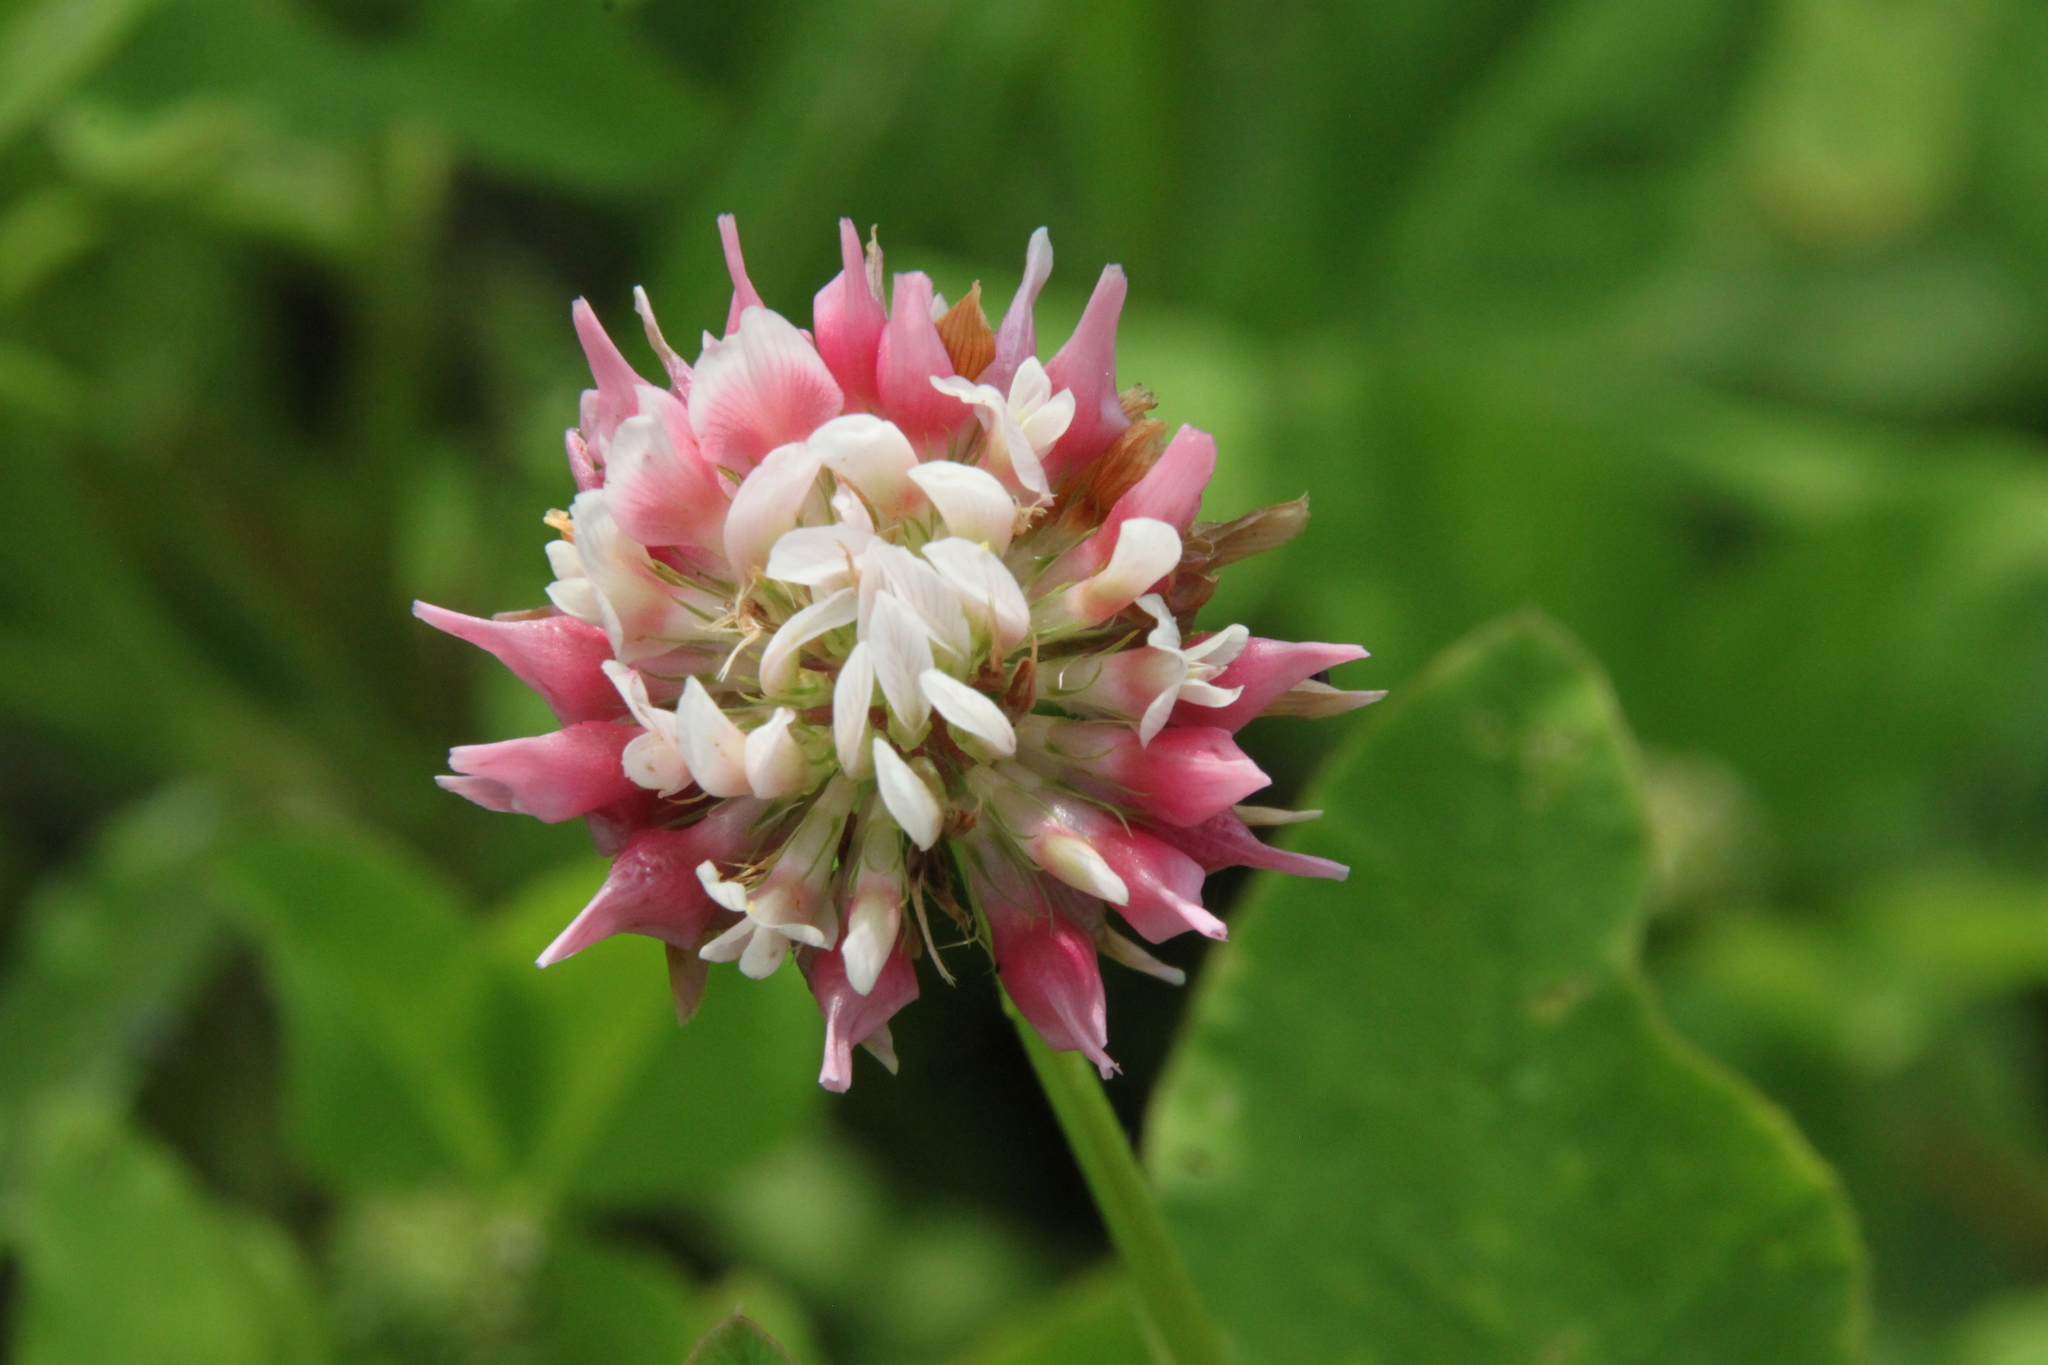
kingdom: Plantae
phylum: Tracheophyta
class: Magnoliopsida
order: Fabales
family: Fabaceae
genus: Trifolium
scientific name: Trifolium hybridum
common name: Alsike clover
